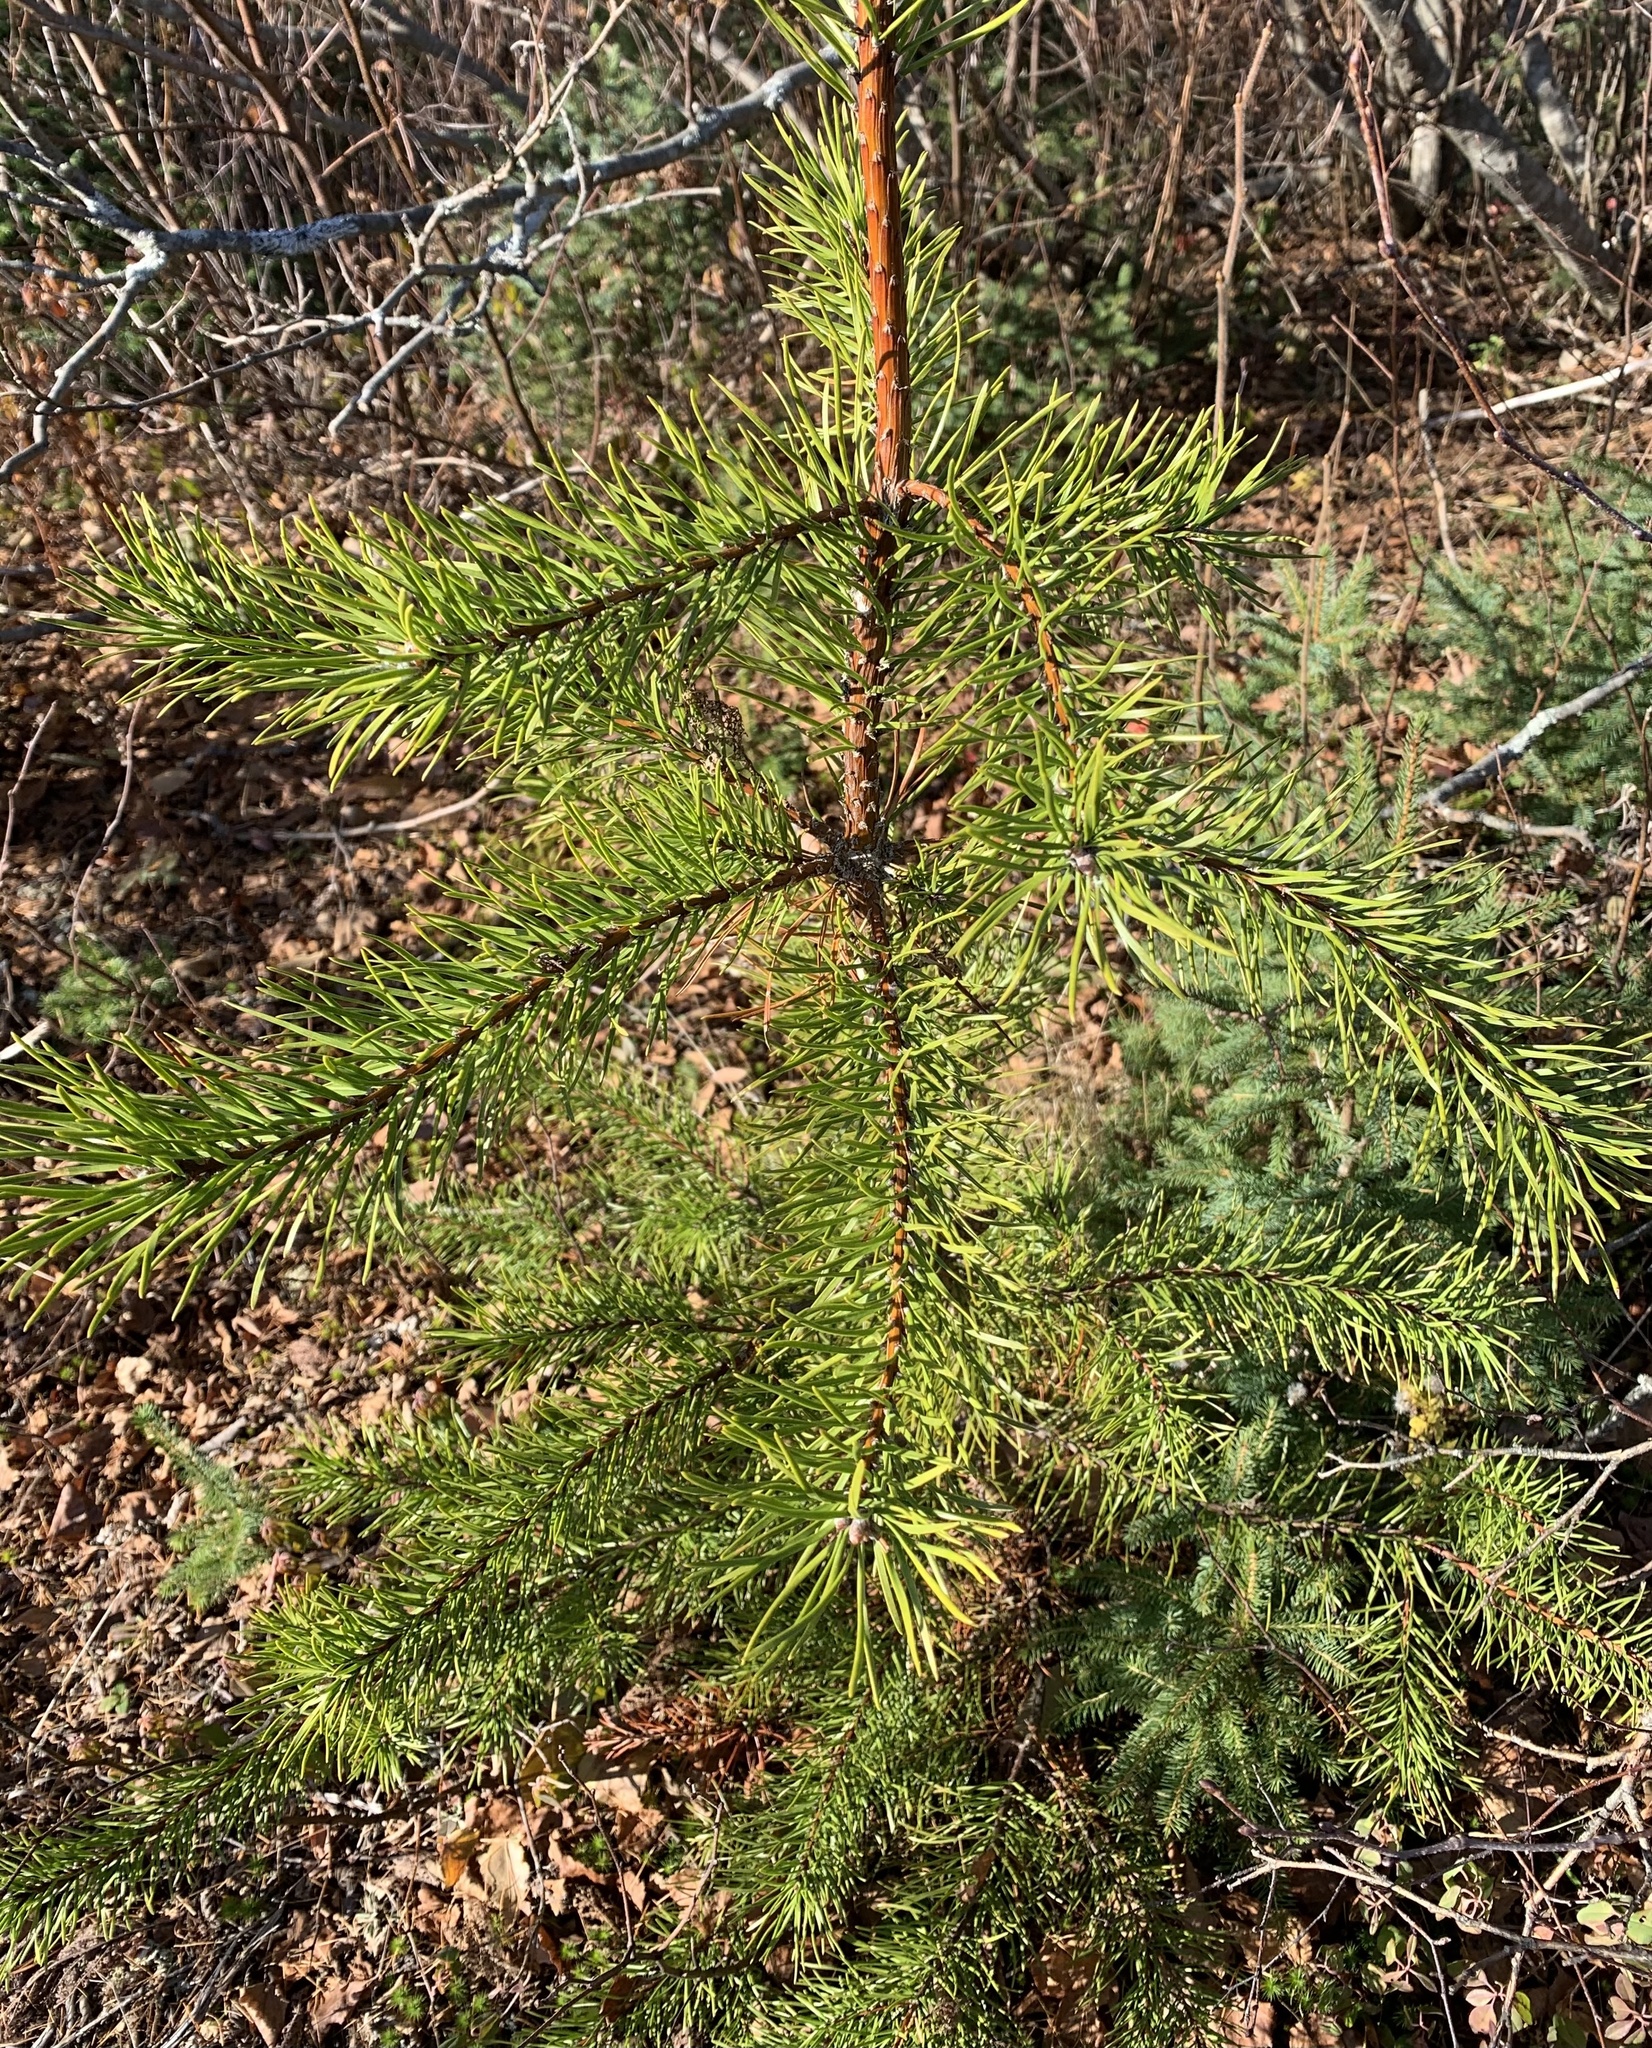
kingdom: Plantae
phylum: Tracheophyta
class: Pinopsida
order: Pinales
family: Pinaceae
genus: Pinus
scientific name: Pinus banksiana
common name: Jack pine
